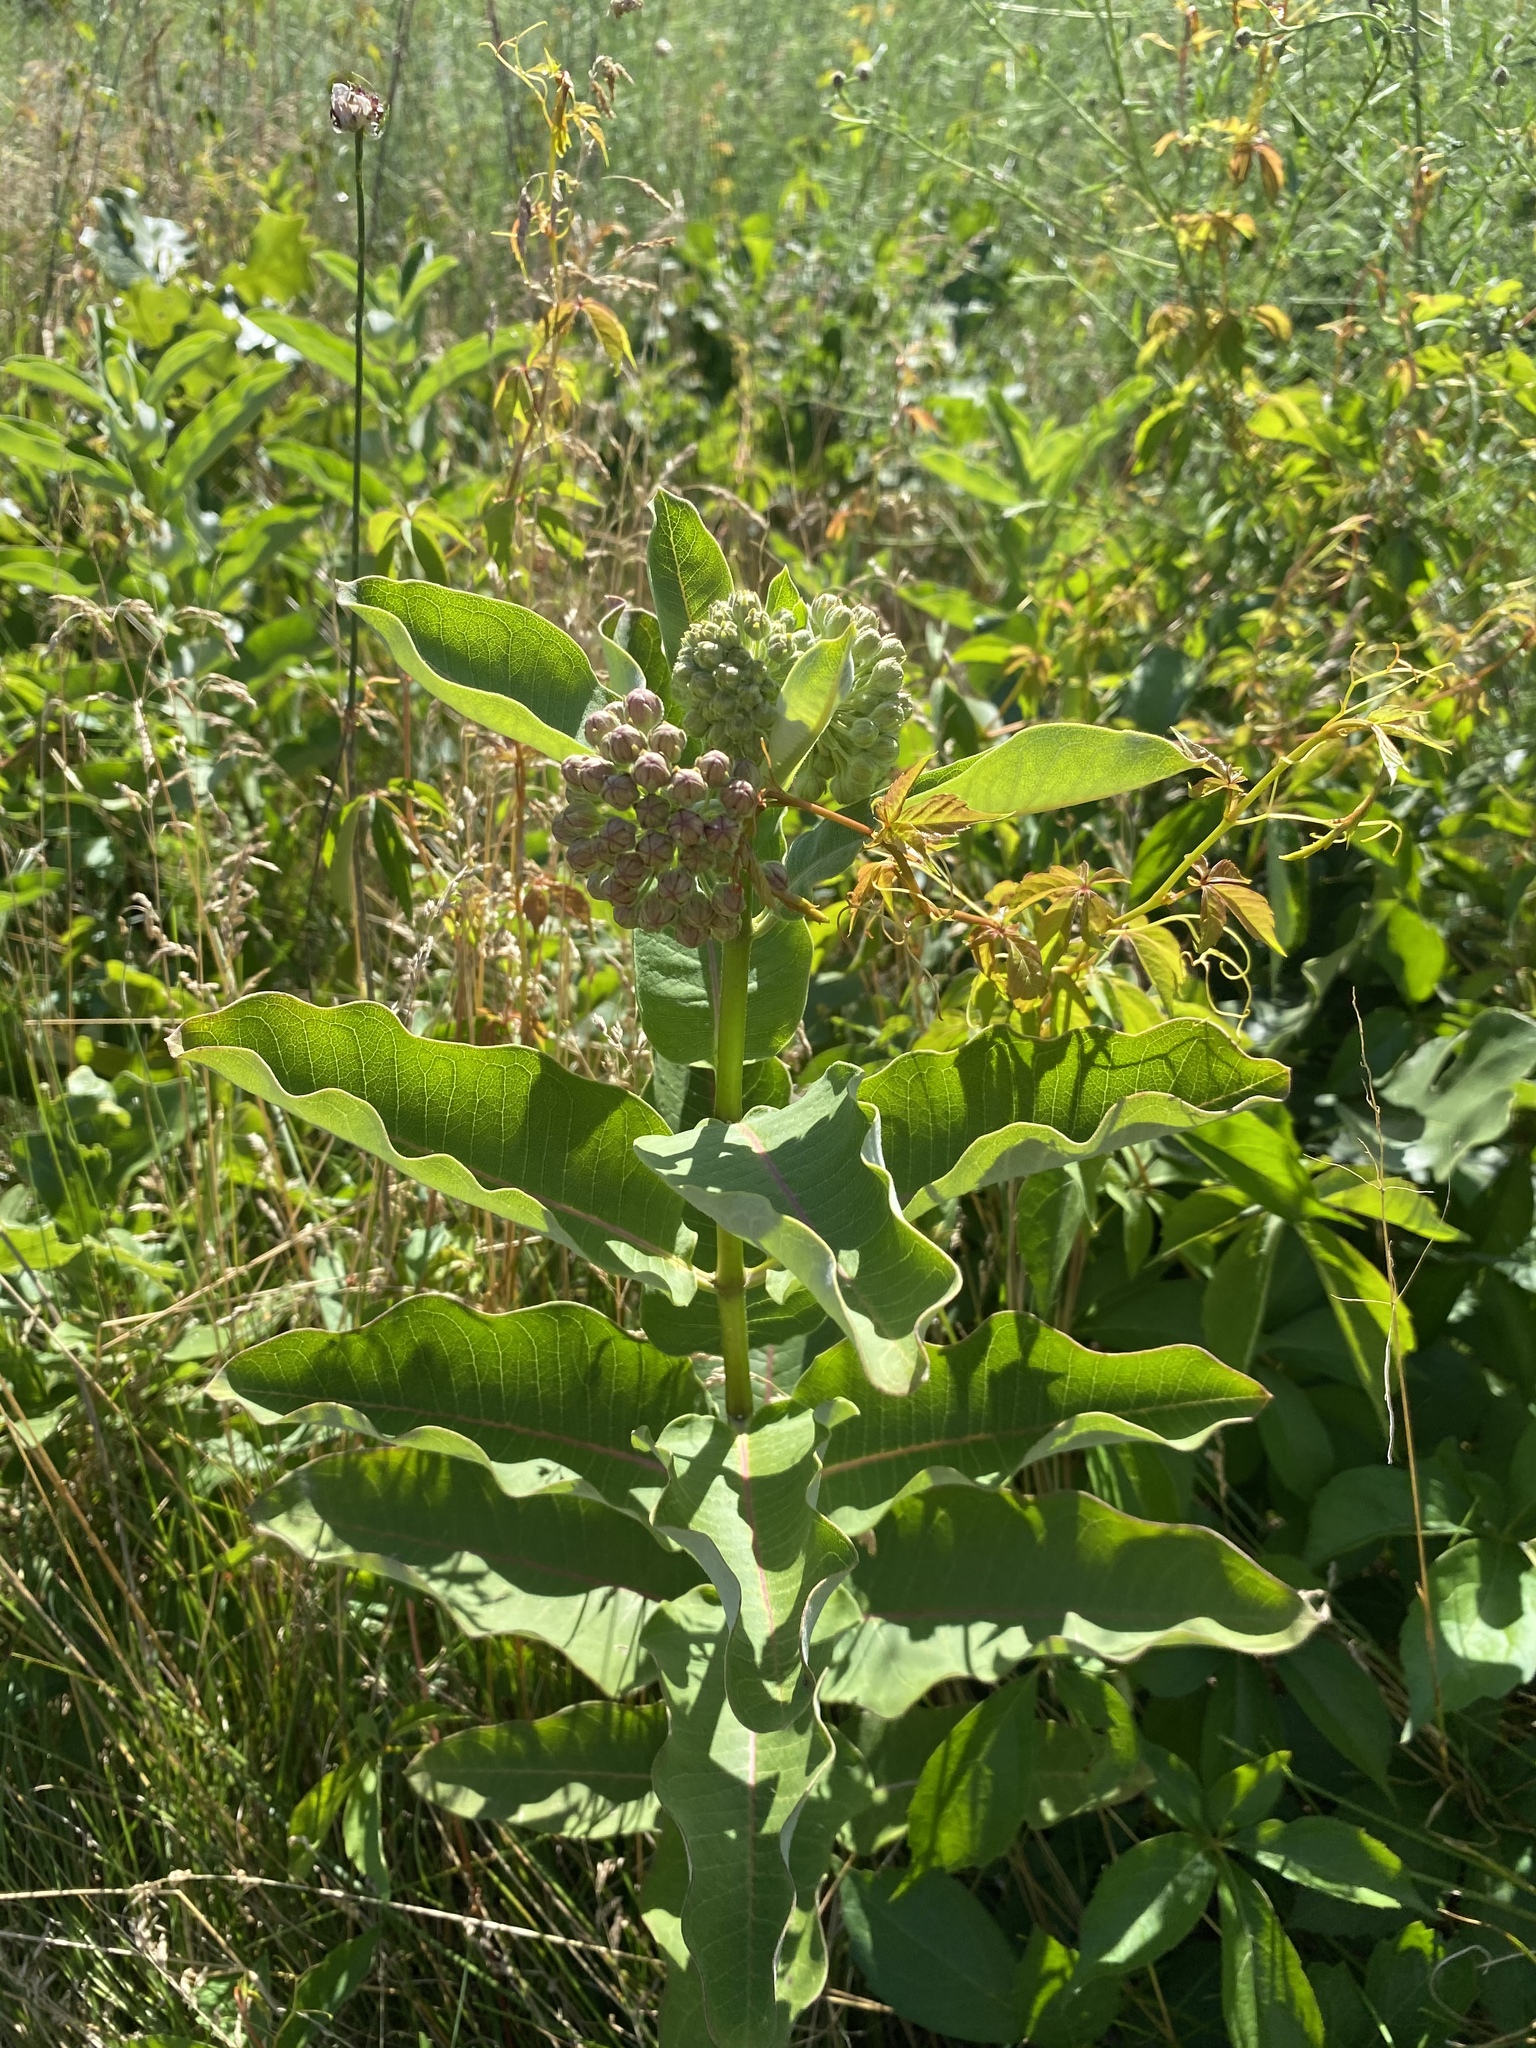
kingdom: Plantae
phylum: Tracheophyta
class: Magnoliopsida
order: Gentianales
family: Apocynaceae
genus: Asclepias
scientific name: Asclepias syriaca
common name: Common milkweed
